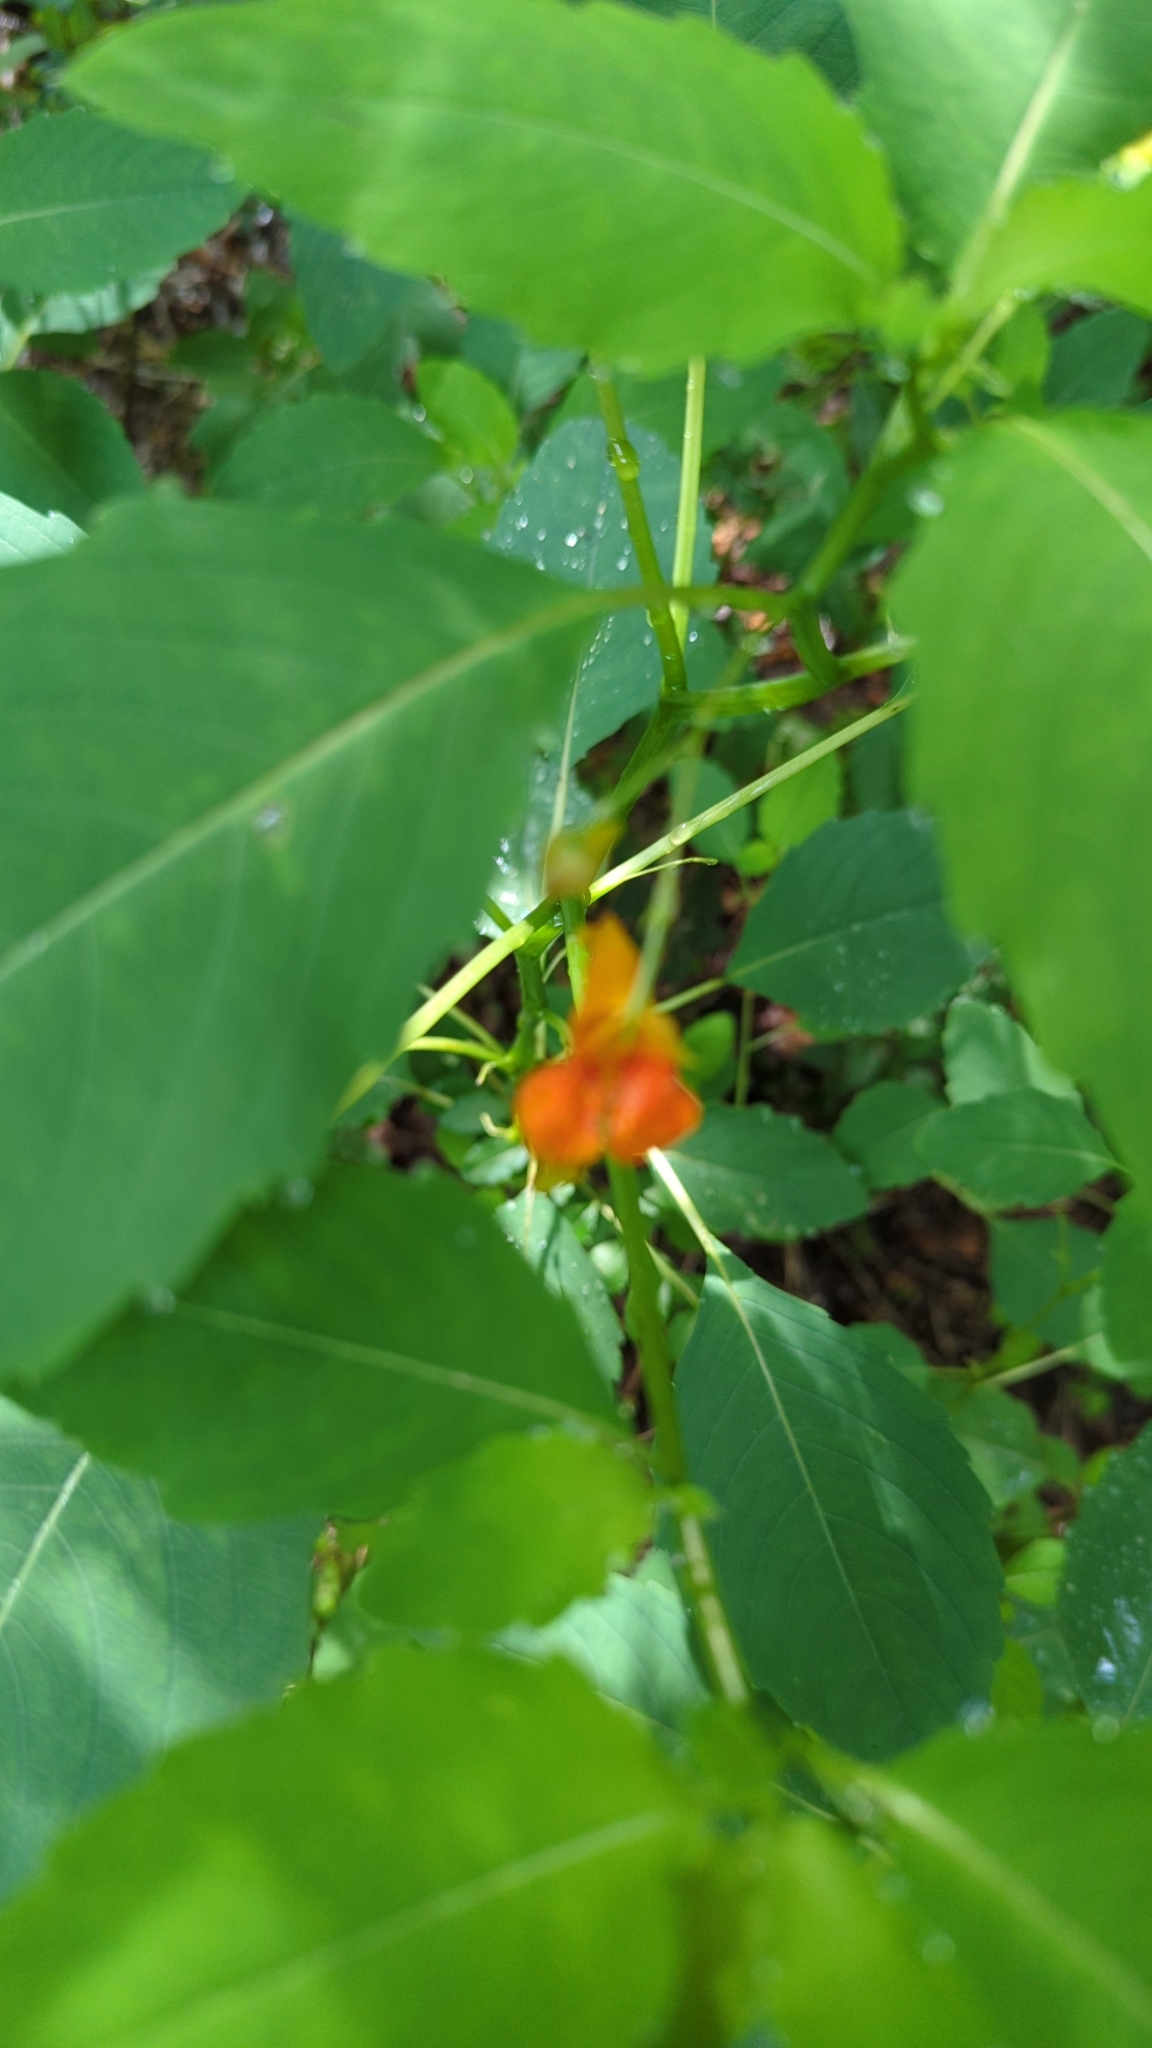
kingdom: Plantae
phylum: Tracheophyta
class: Magnoliopsida
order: Ericales
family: Balsaminaceae
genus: Impatiens
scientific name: Impatiens capensis
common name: Orange balsam
